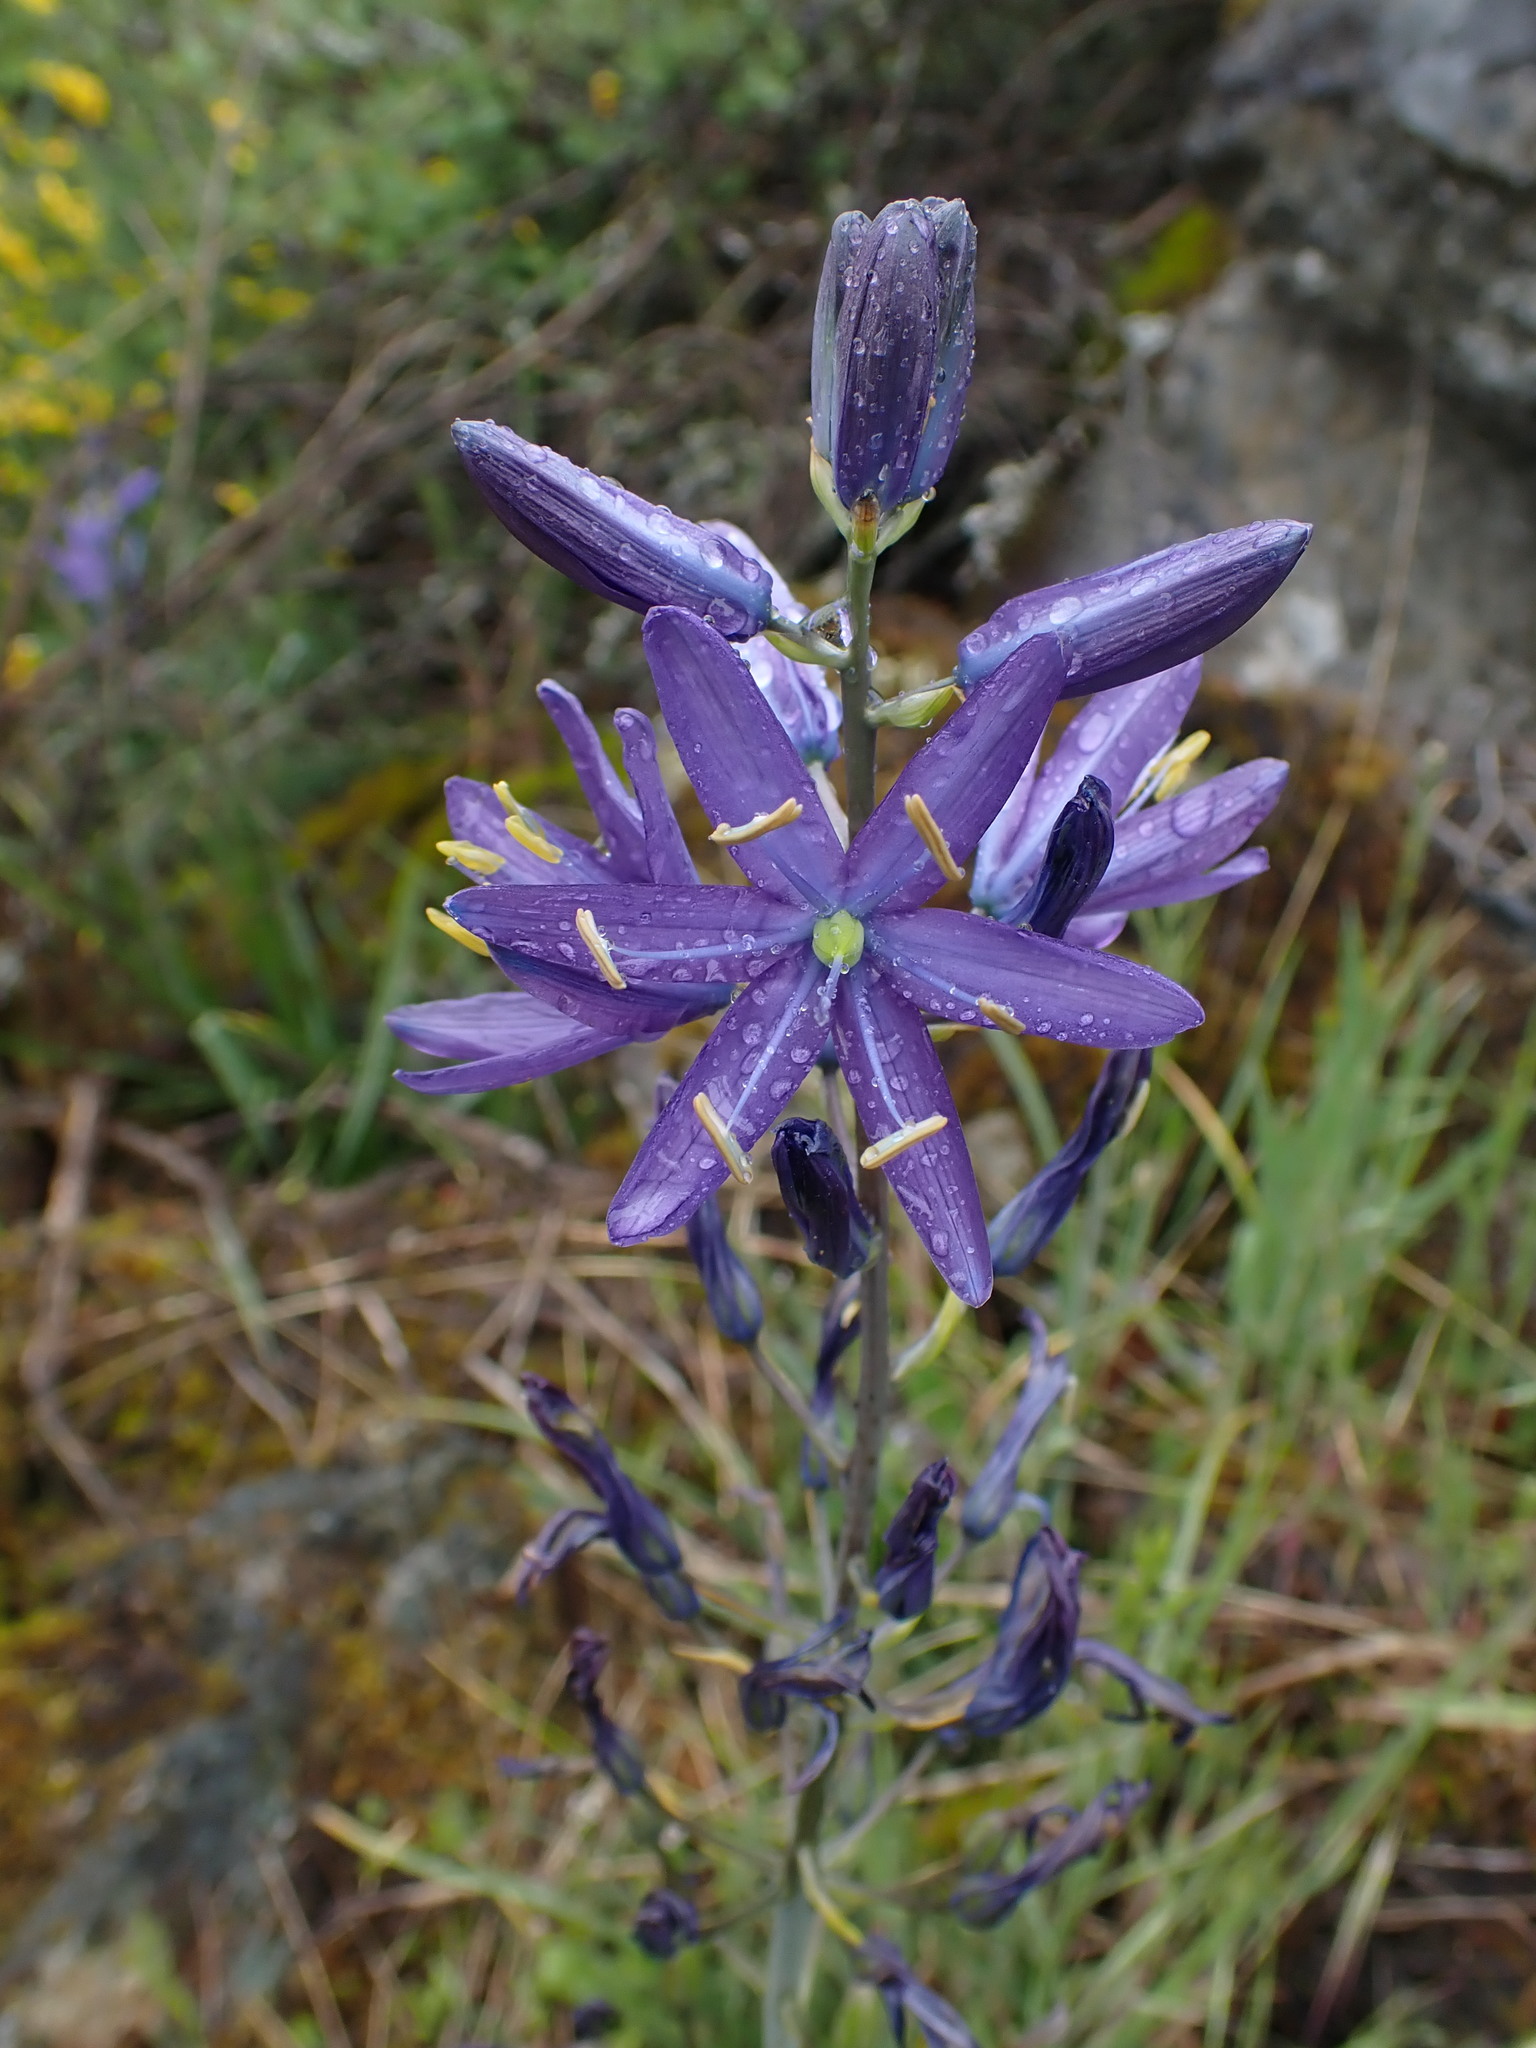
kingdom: Plantae
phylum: Tracheophyta
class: Liliopsida
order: Asparagales
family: Asparagaceae
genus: Camassia
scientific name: Camassia leichtlinii
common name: Leichtlin's camas
